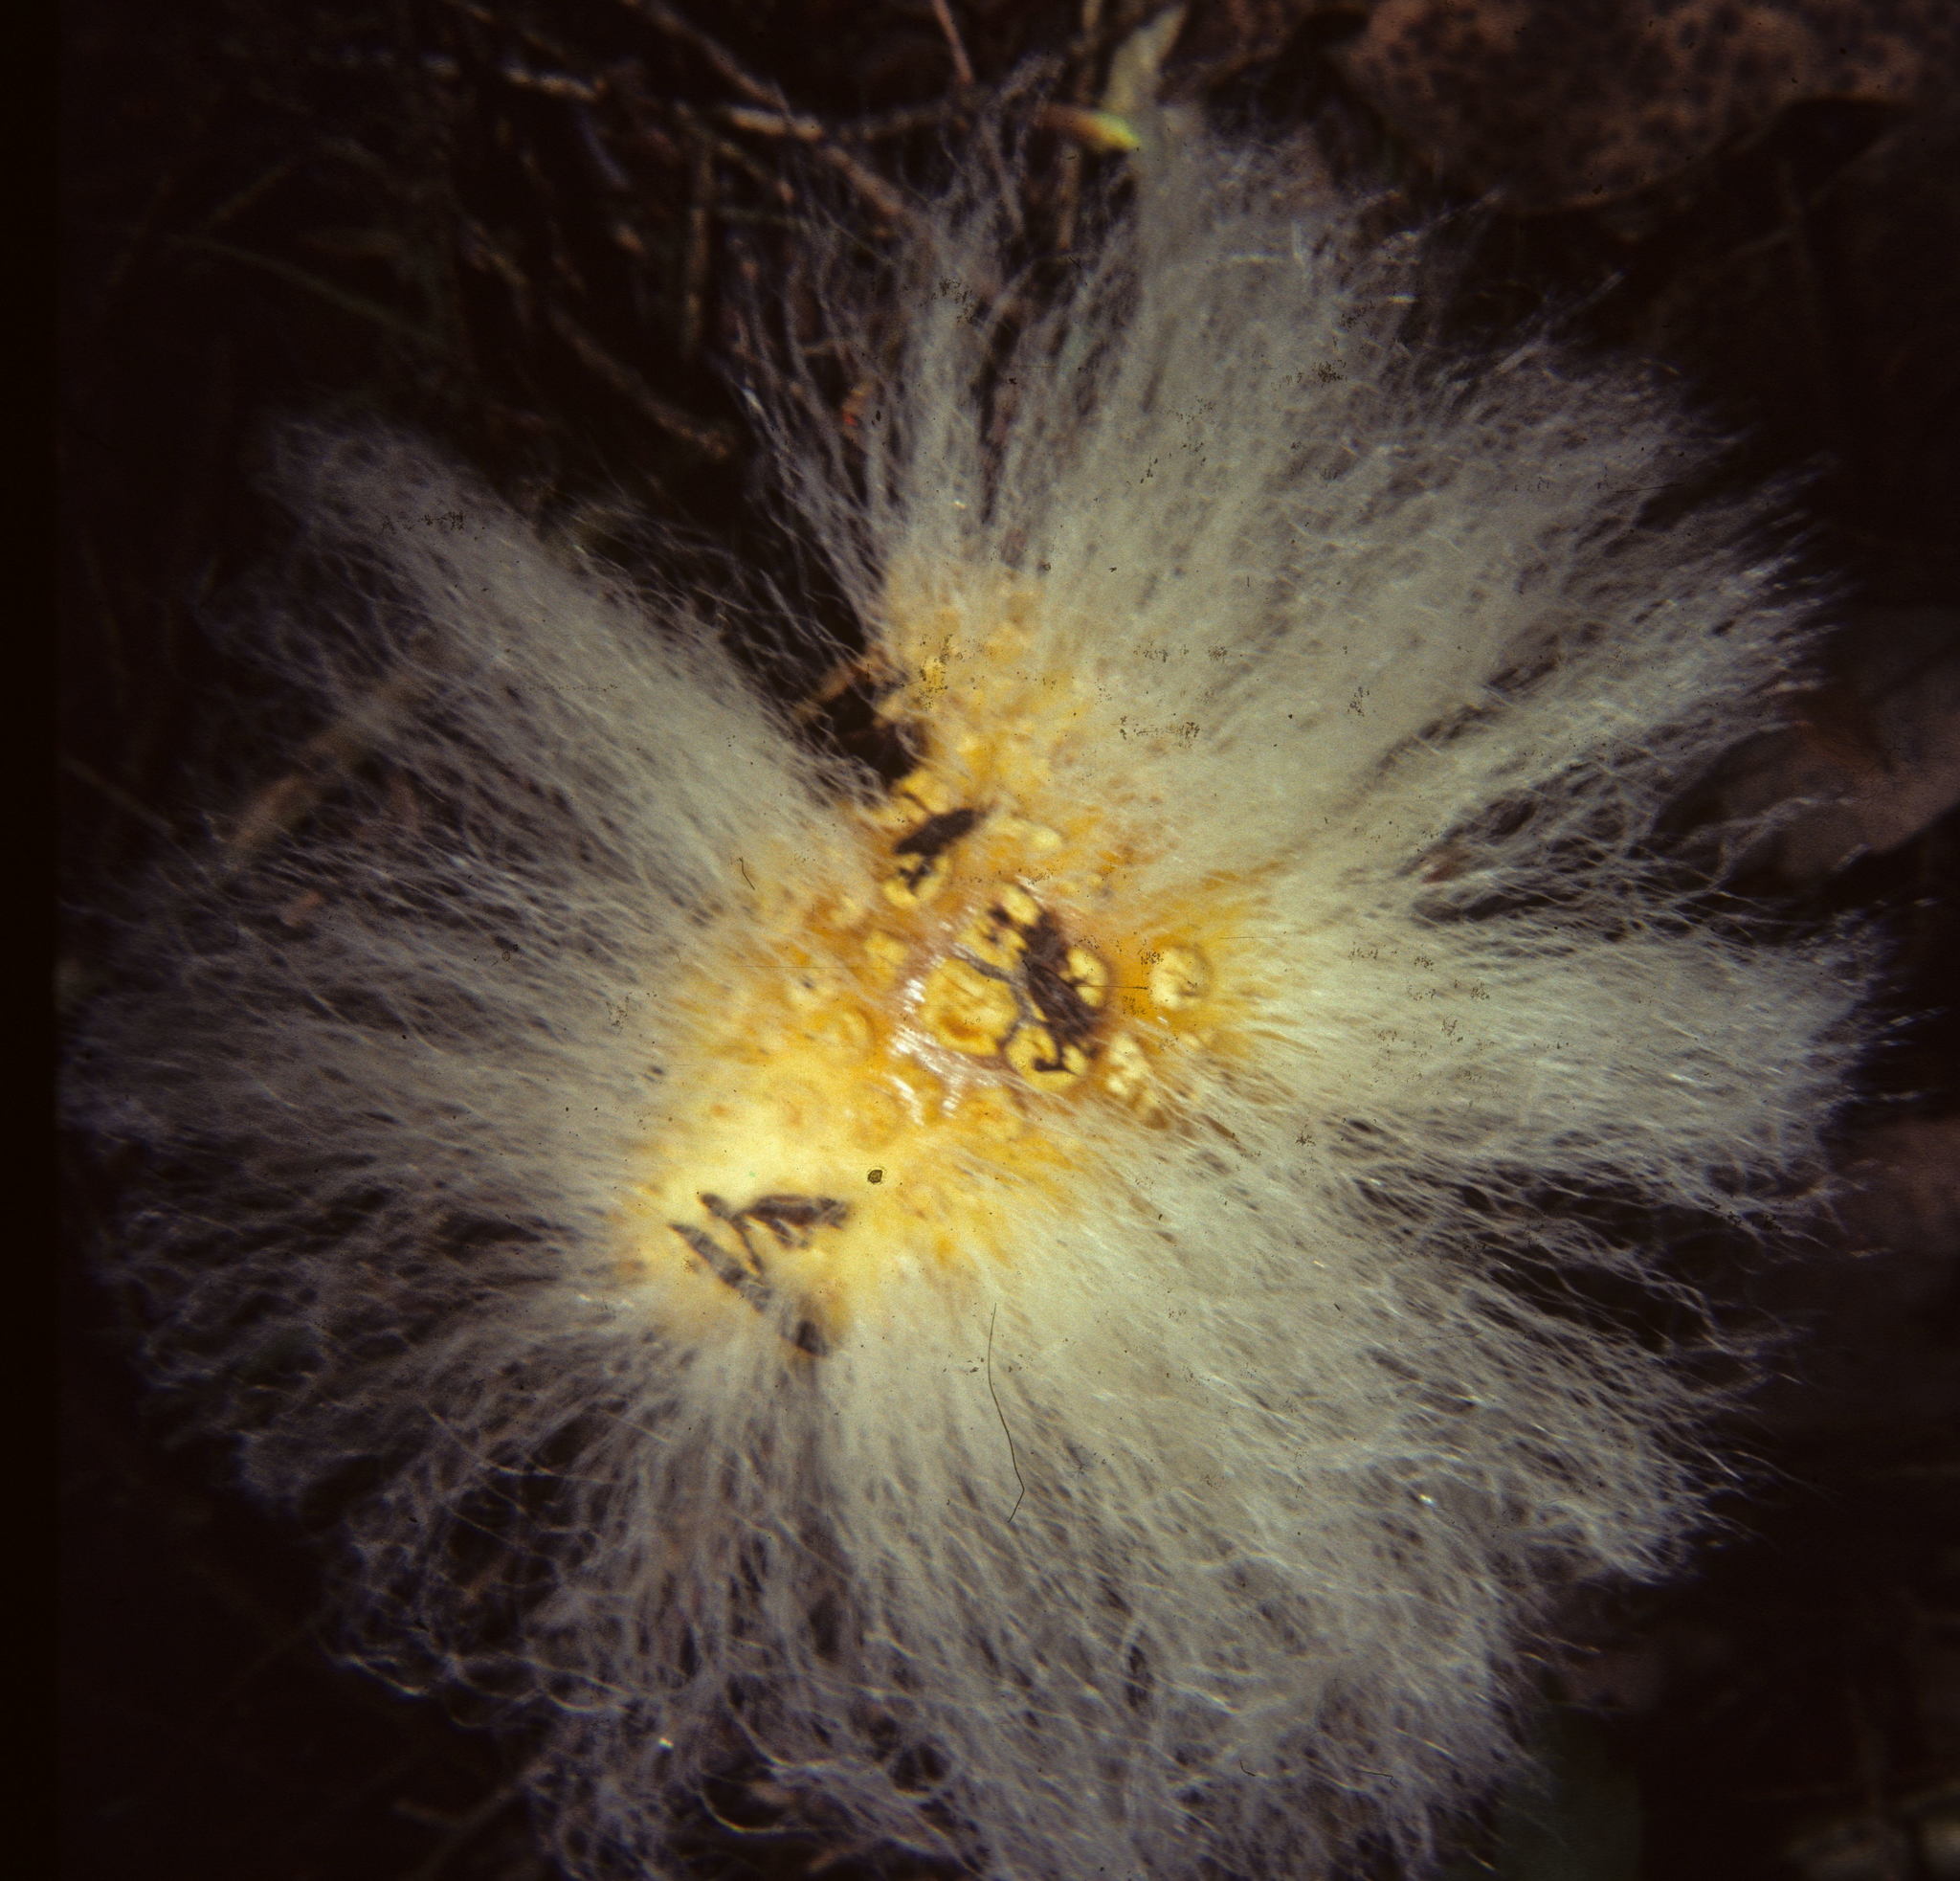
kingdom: Fungi
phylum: Mucoromycota
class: Mucoromycetes
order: Mucorales
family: Rhizopodaceae
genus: Syzygites
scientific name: Syzygites megalocarpus
